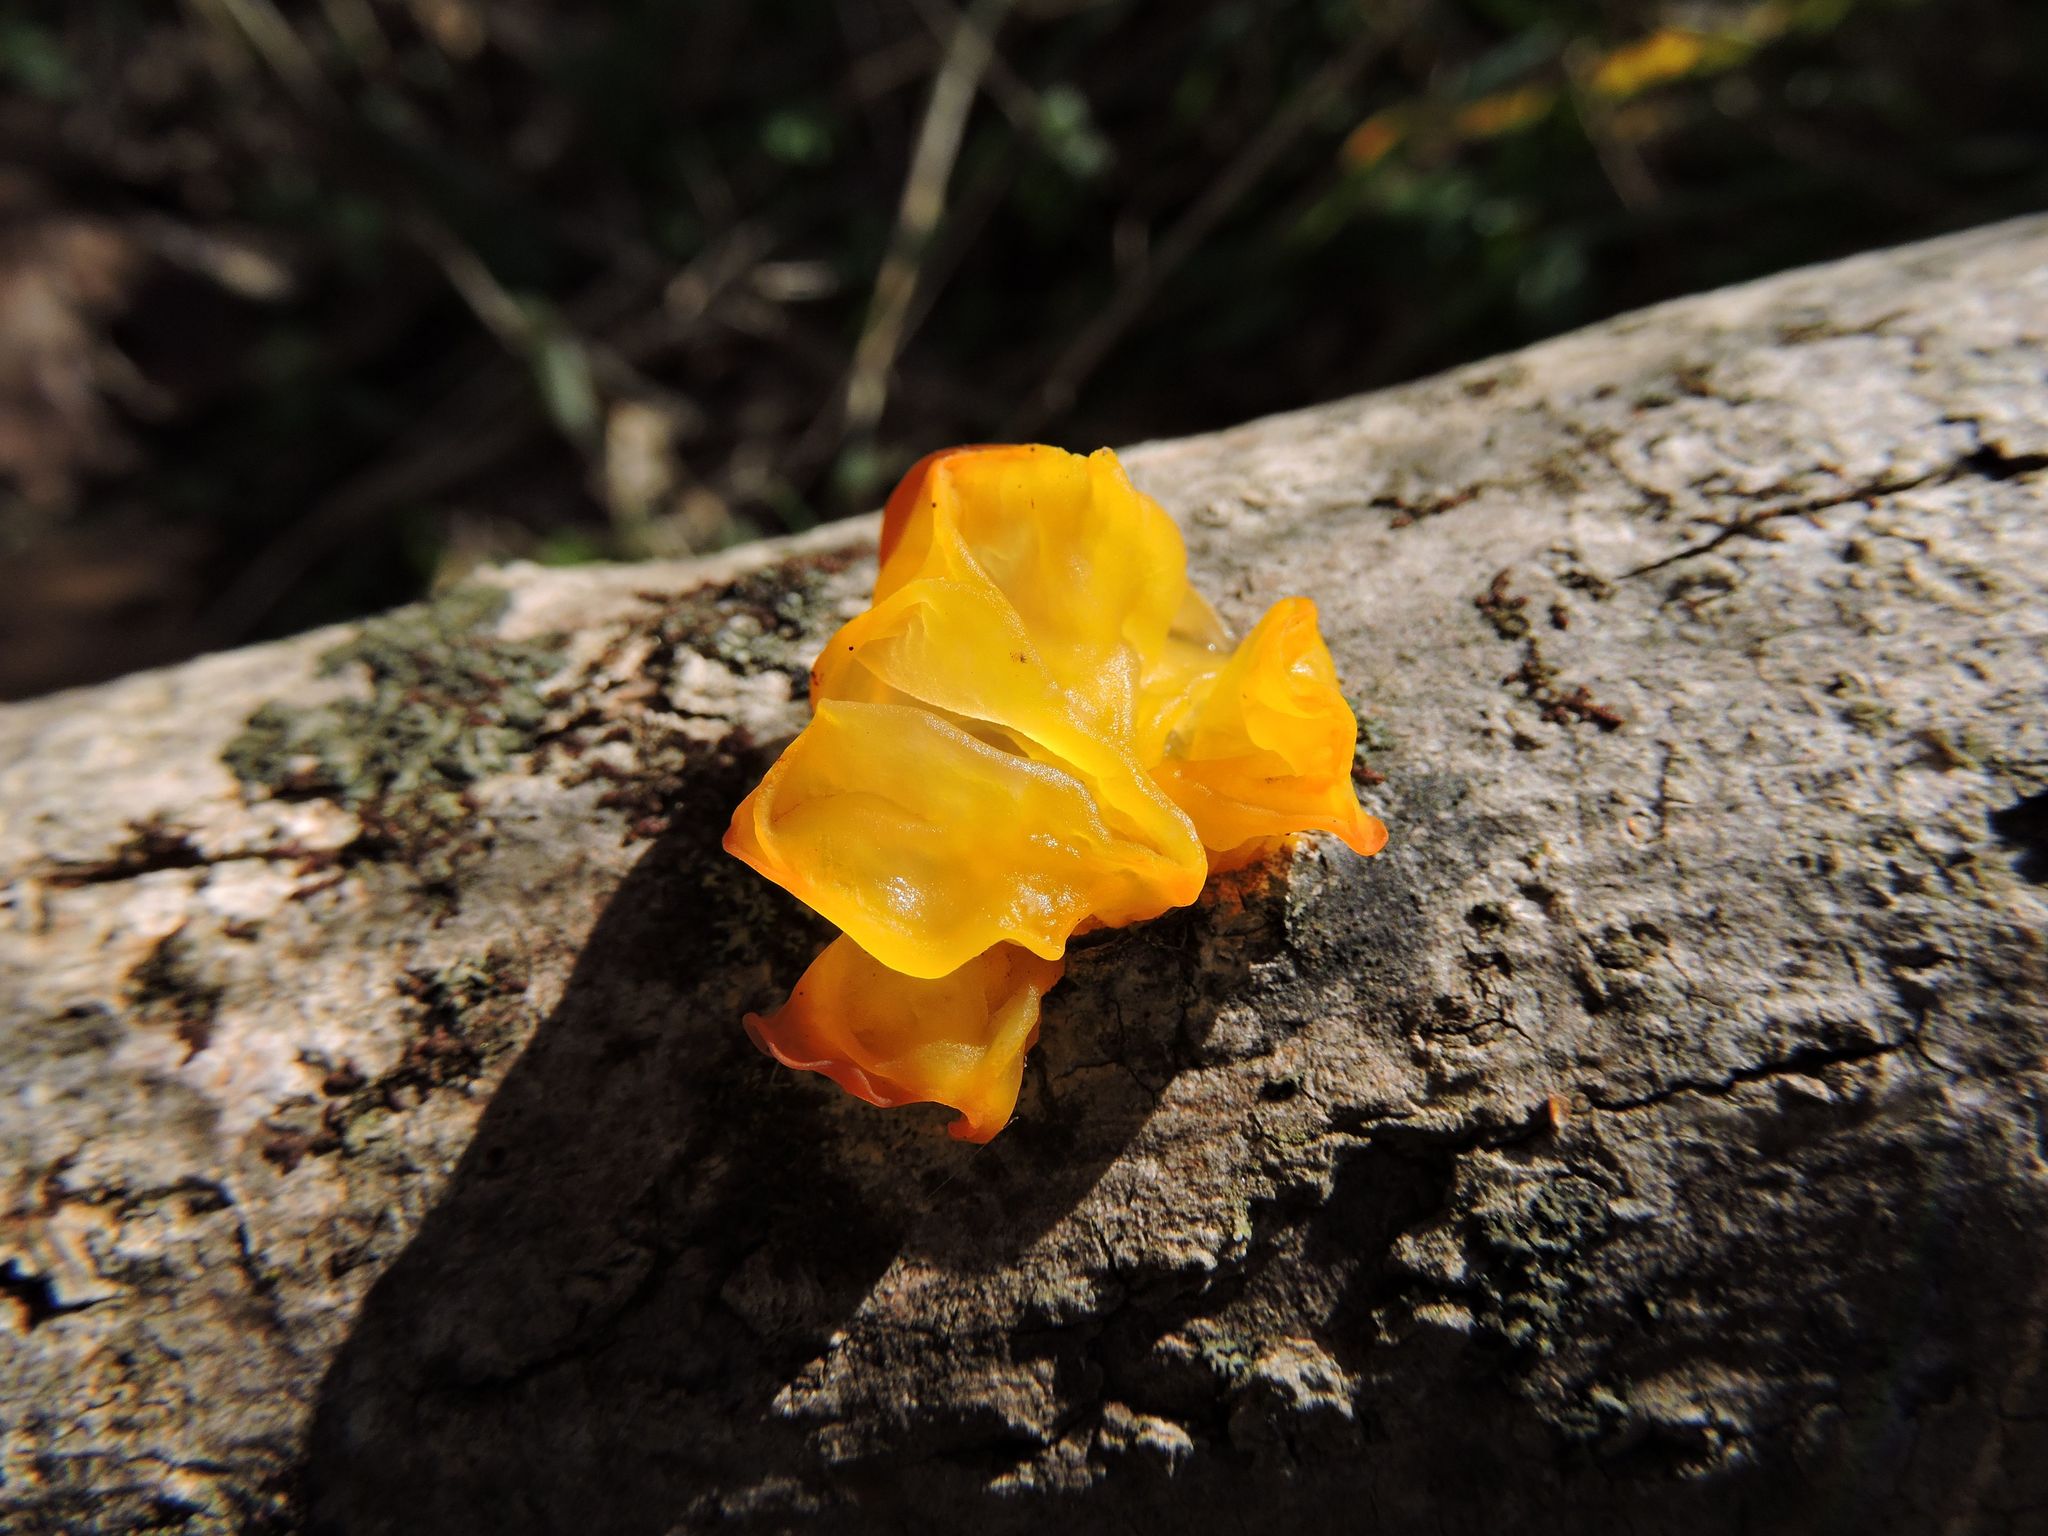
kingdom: Fungi
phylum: Basidiomycota
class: Tremellomycetes
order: Tremellales
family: Tremellaceae
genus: Tremella
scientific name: Tremella mesenterica
